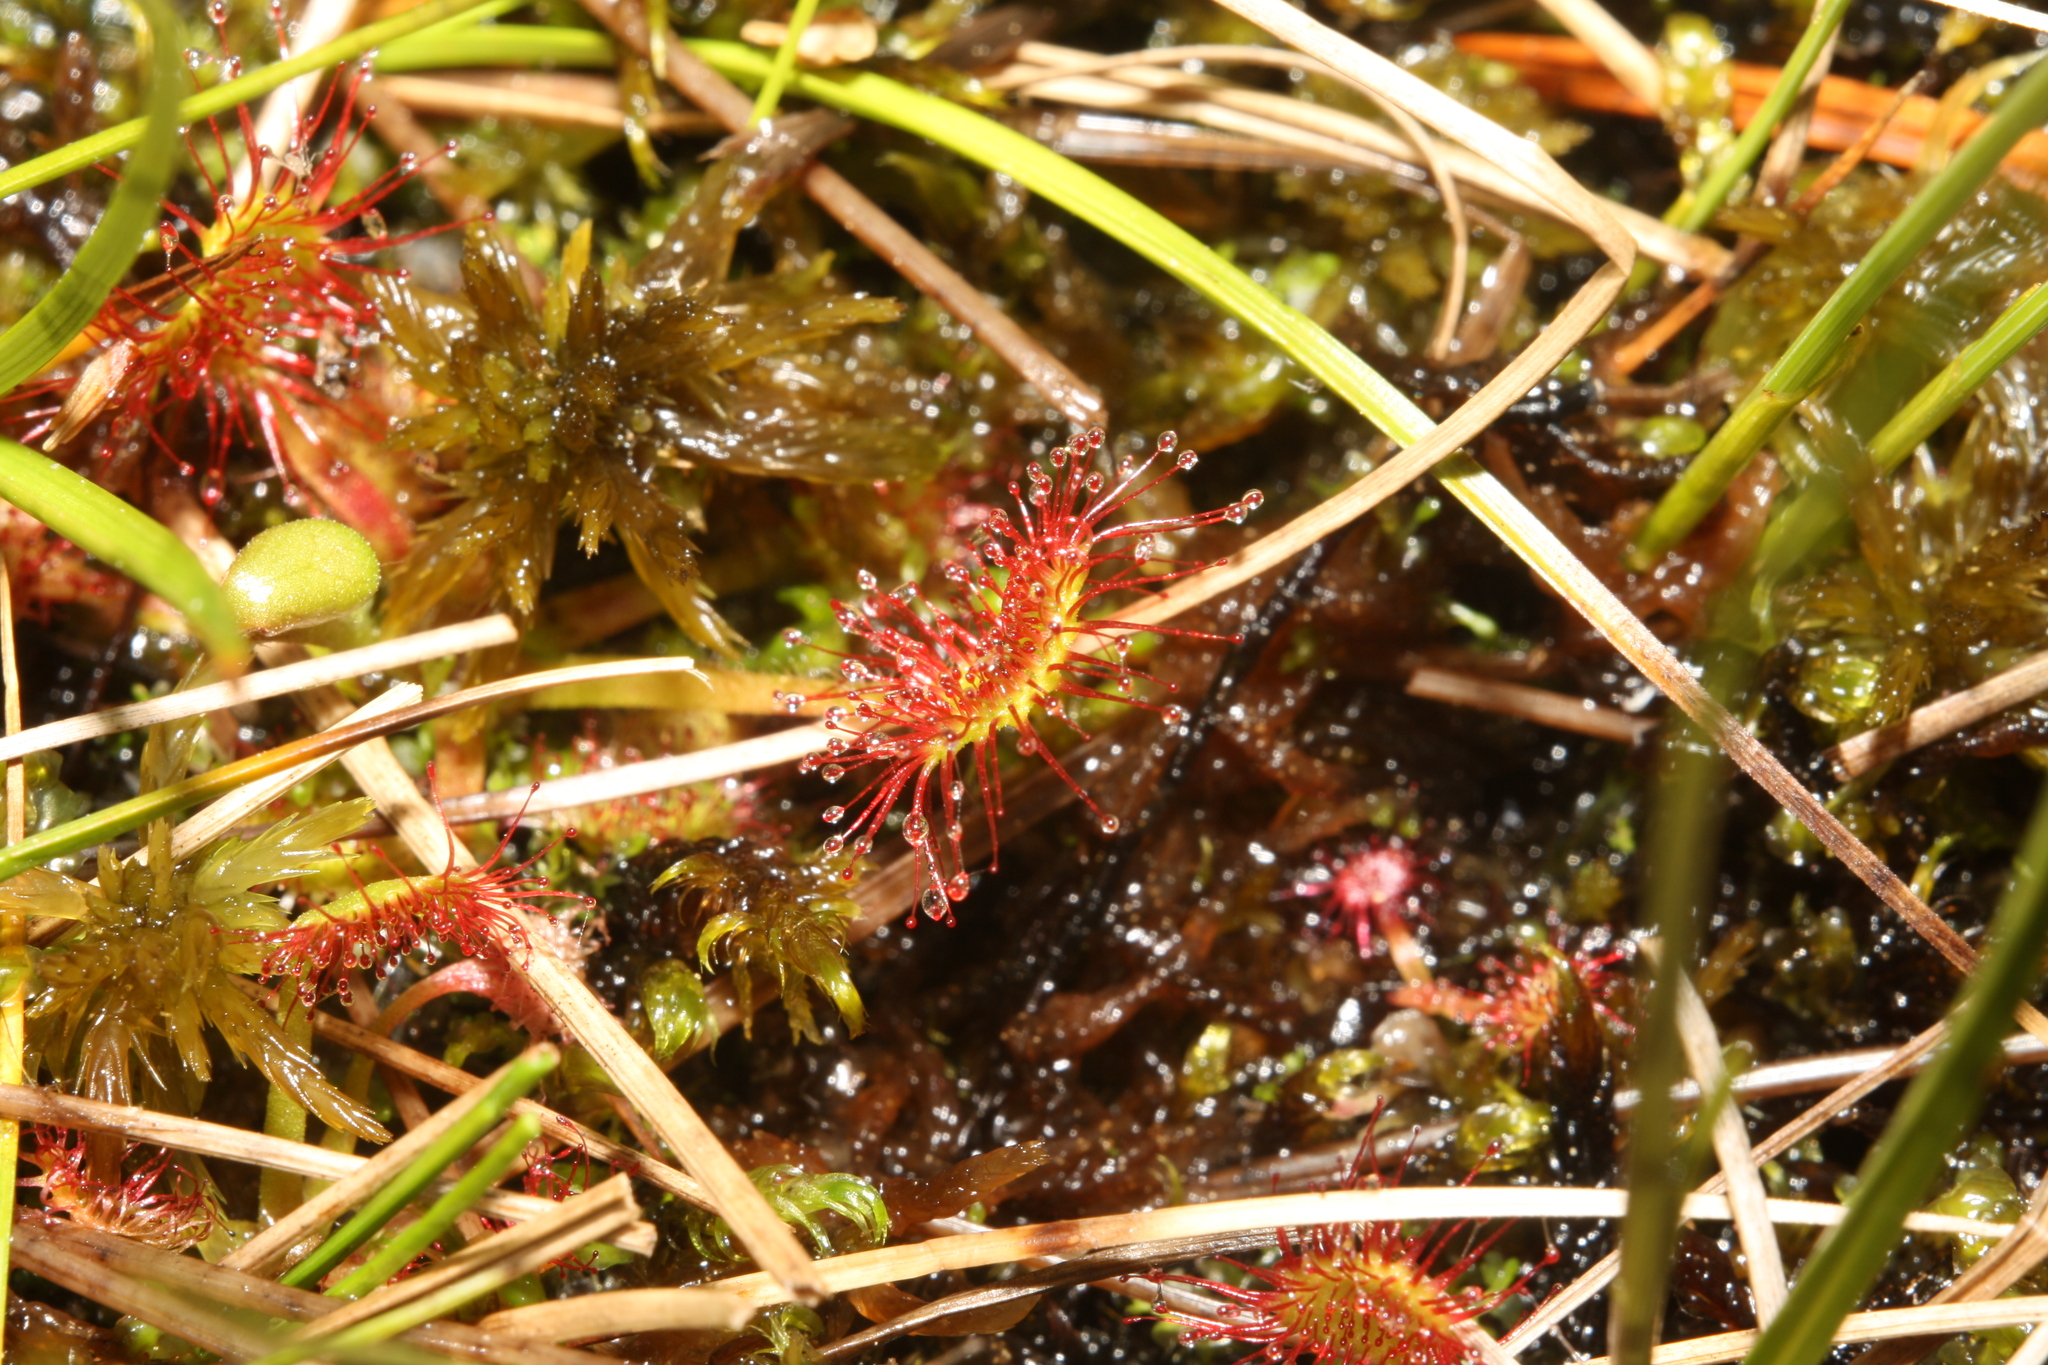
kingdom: Plantae
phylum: Tracheophyta
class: Magnoliopsida
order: Caryophyllales
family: Droseraceae
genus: Drosera
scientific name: Drosera rotundifolia
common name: Round-leaved sundew
